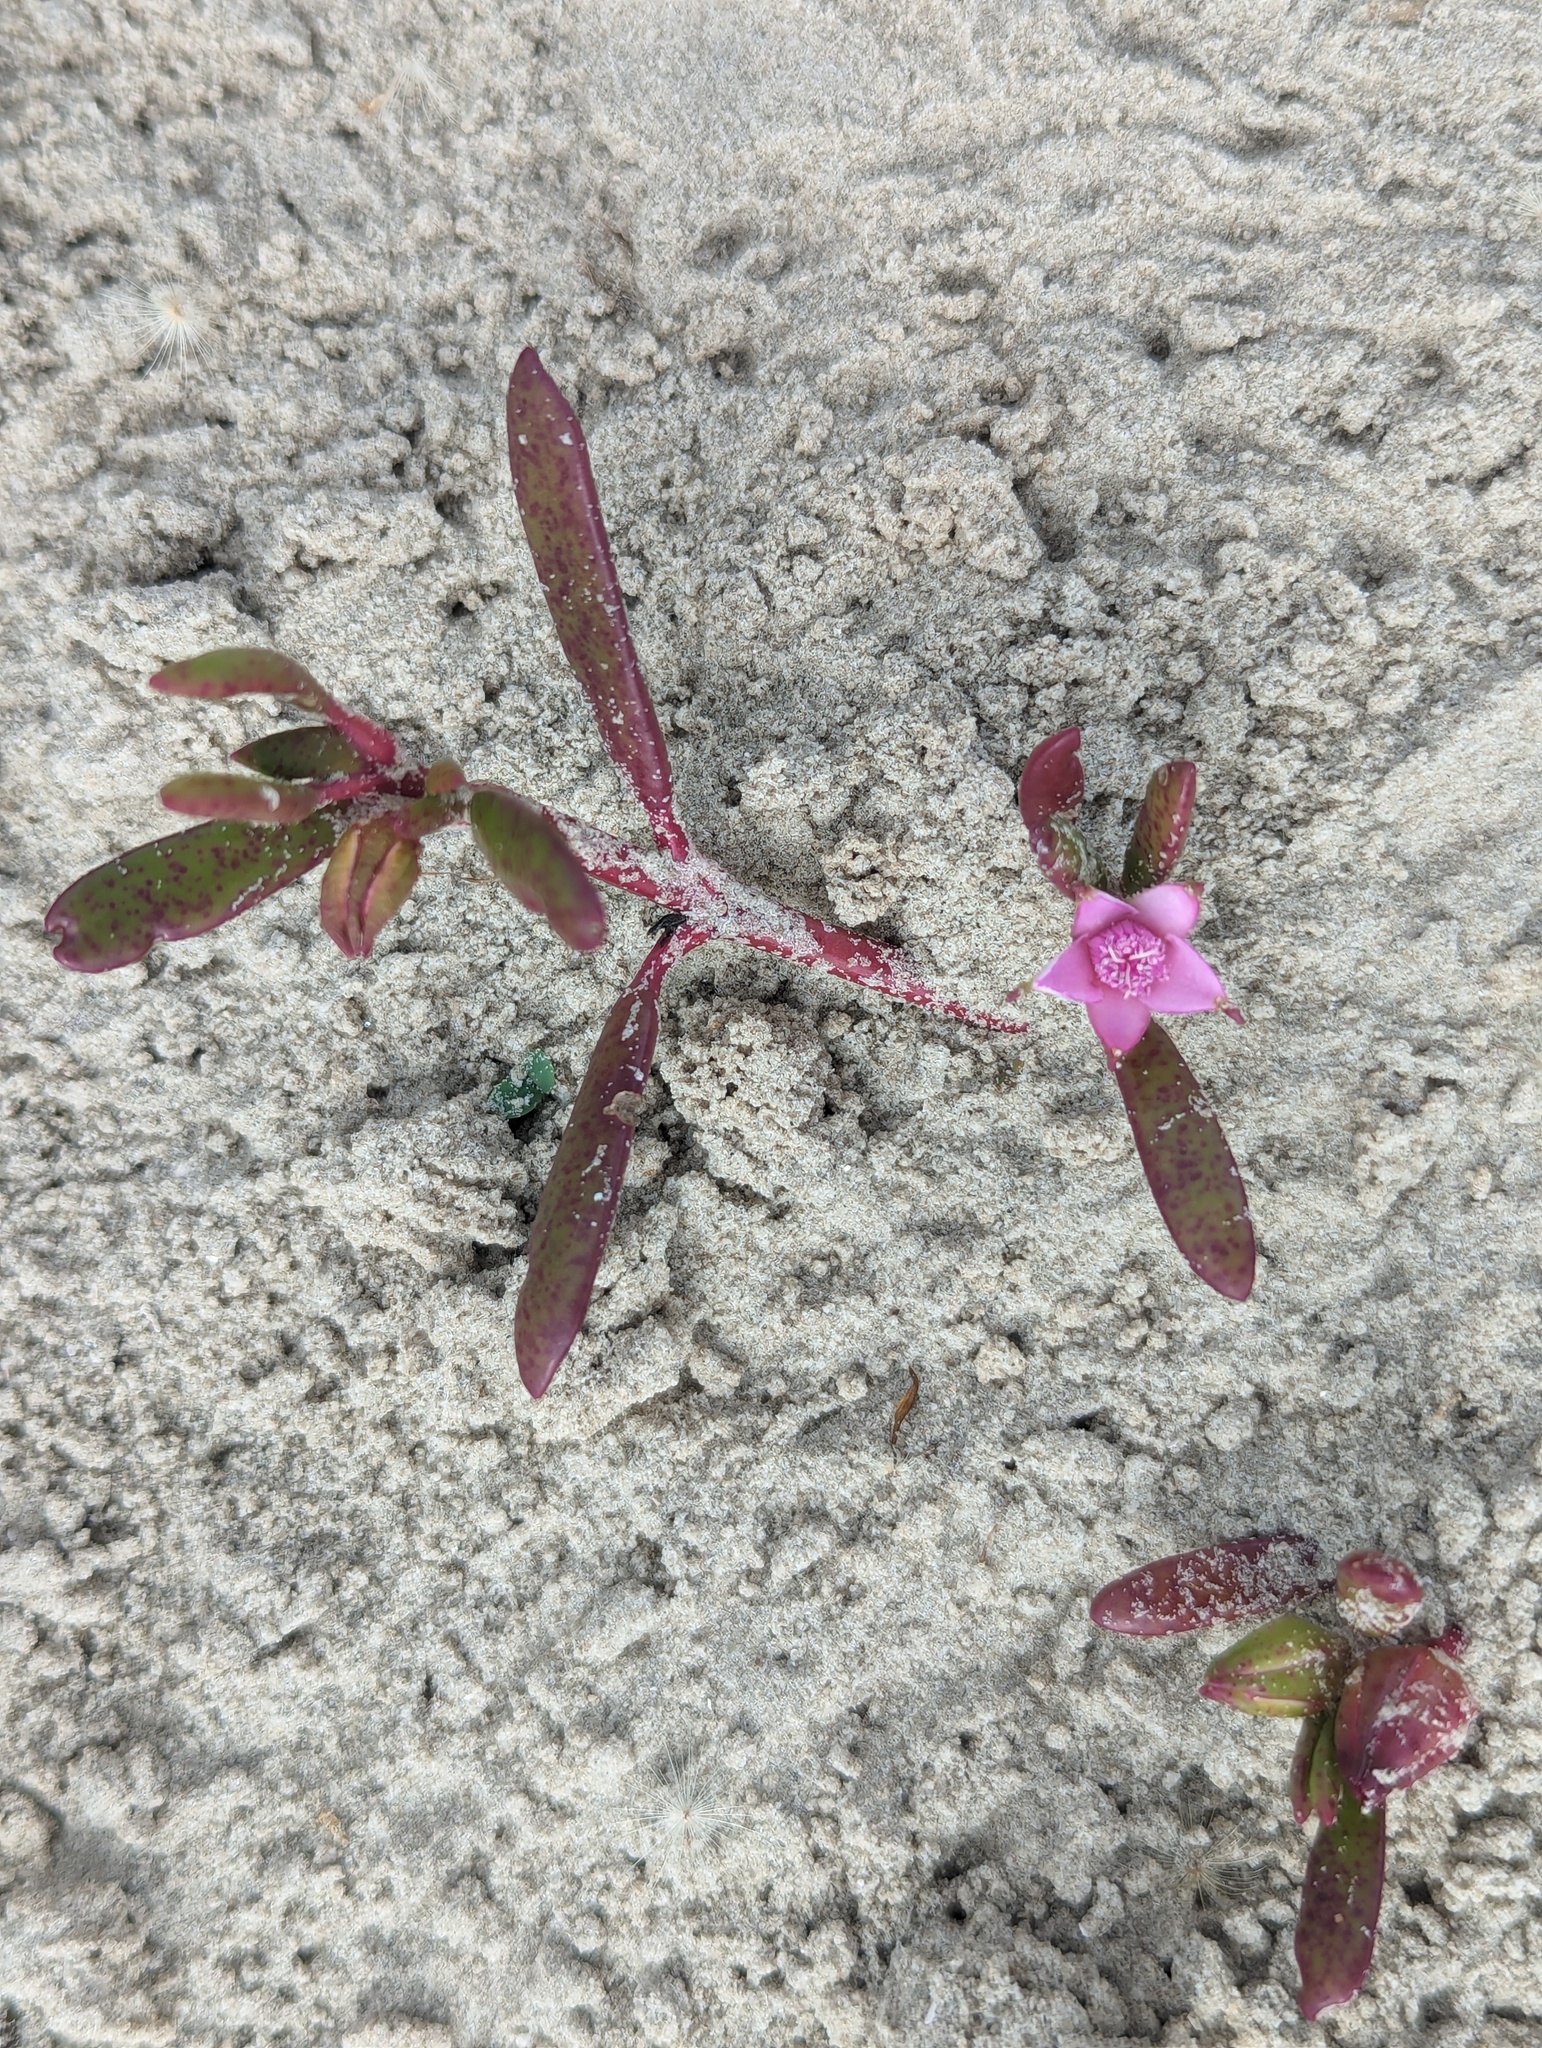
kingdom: Plantae
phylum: Tracheophyta
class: Magnoliopsida
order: Caryophyllales
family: Aizoaceae
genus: Sesuvium
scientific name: Sesuvium portulacastrum
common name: Sea-purslane
